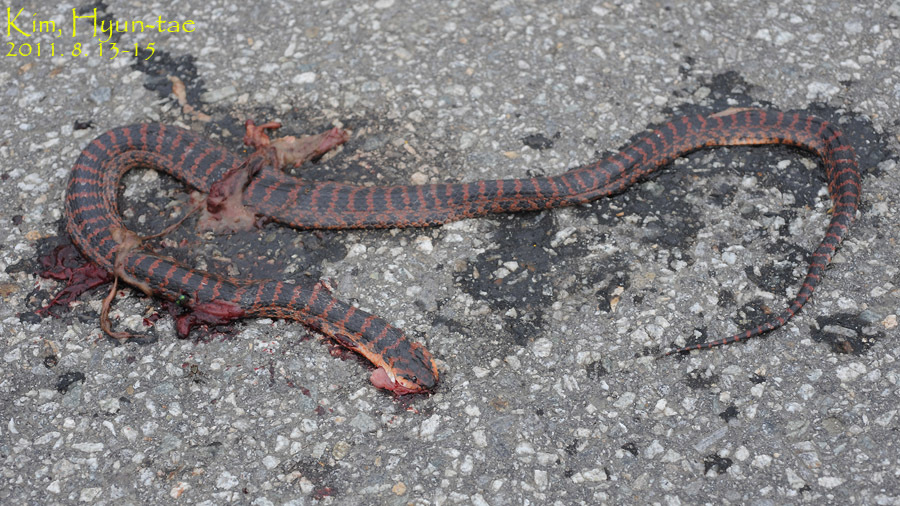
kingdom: Animalia
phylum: Chordata
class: Squamata
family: Colubridae
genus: Lycodon
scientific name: Lycodon rufozonatus
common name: Red-banded snake
